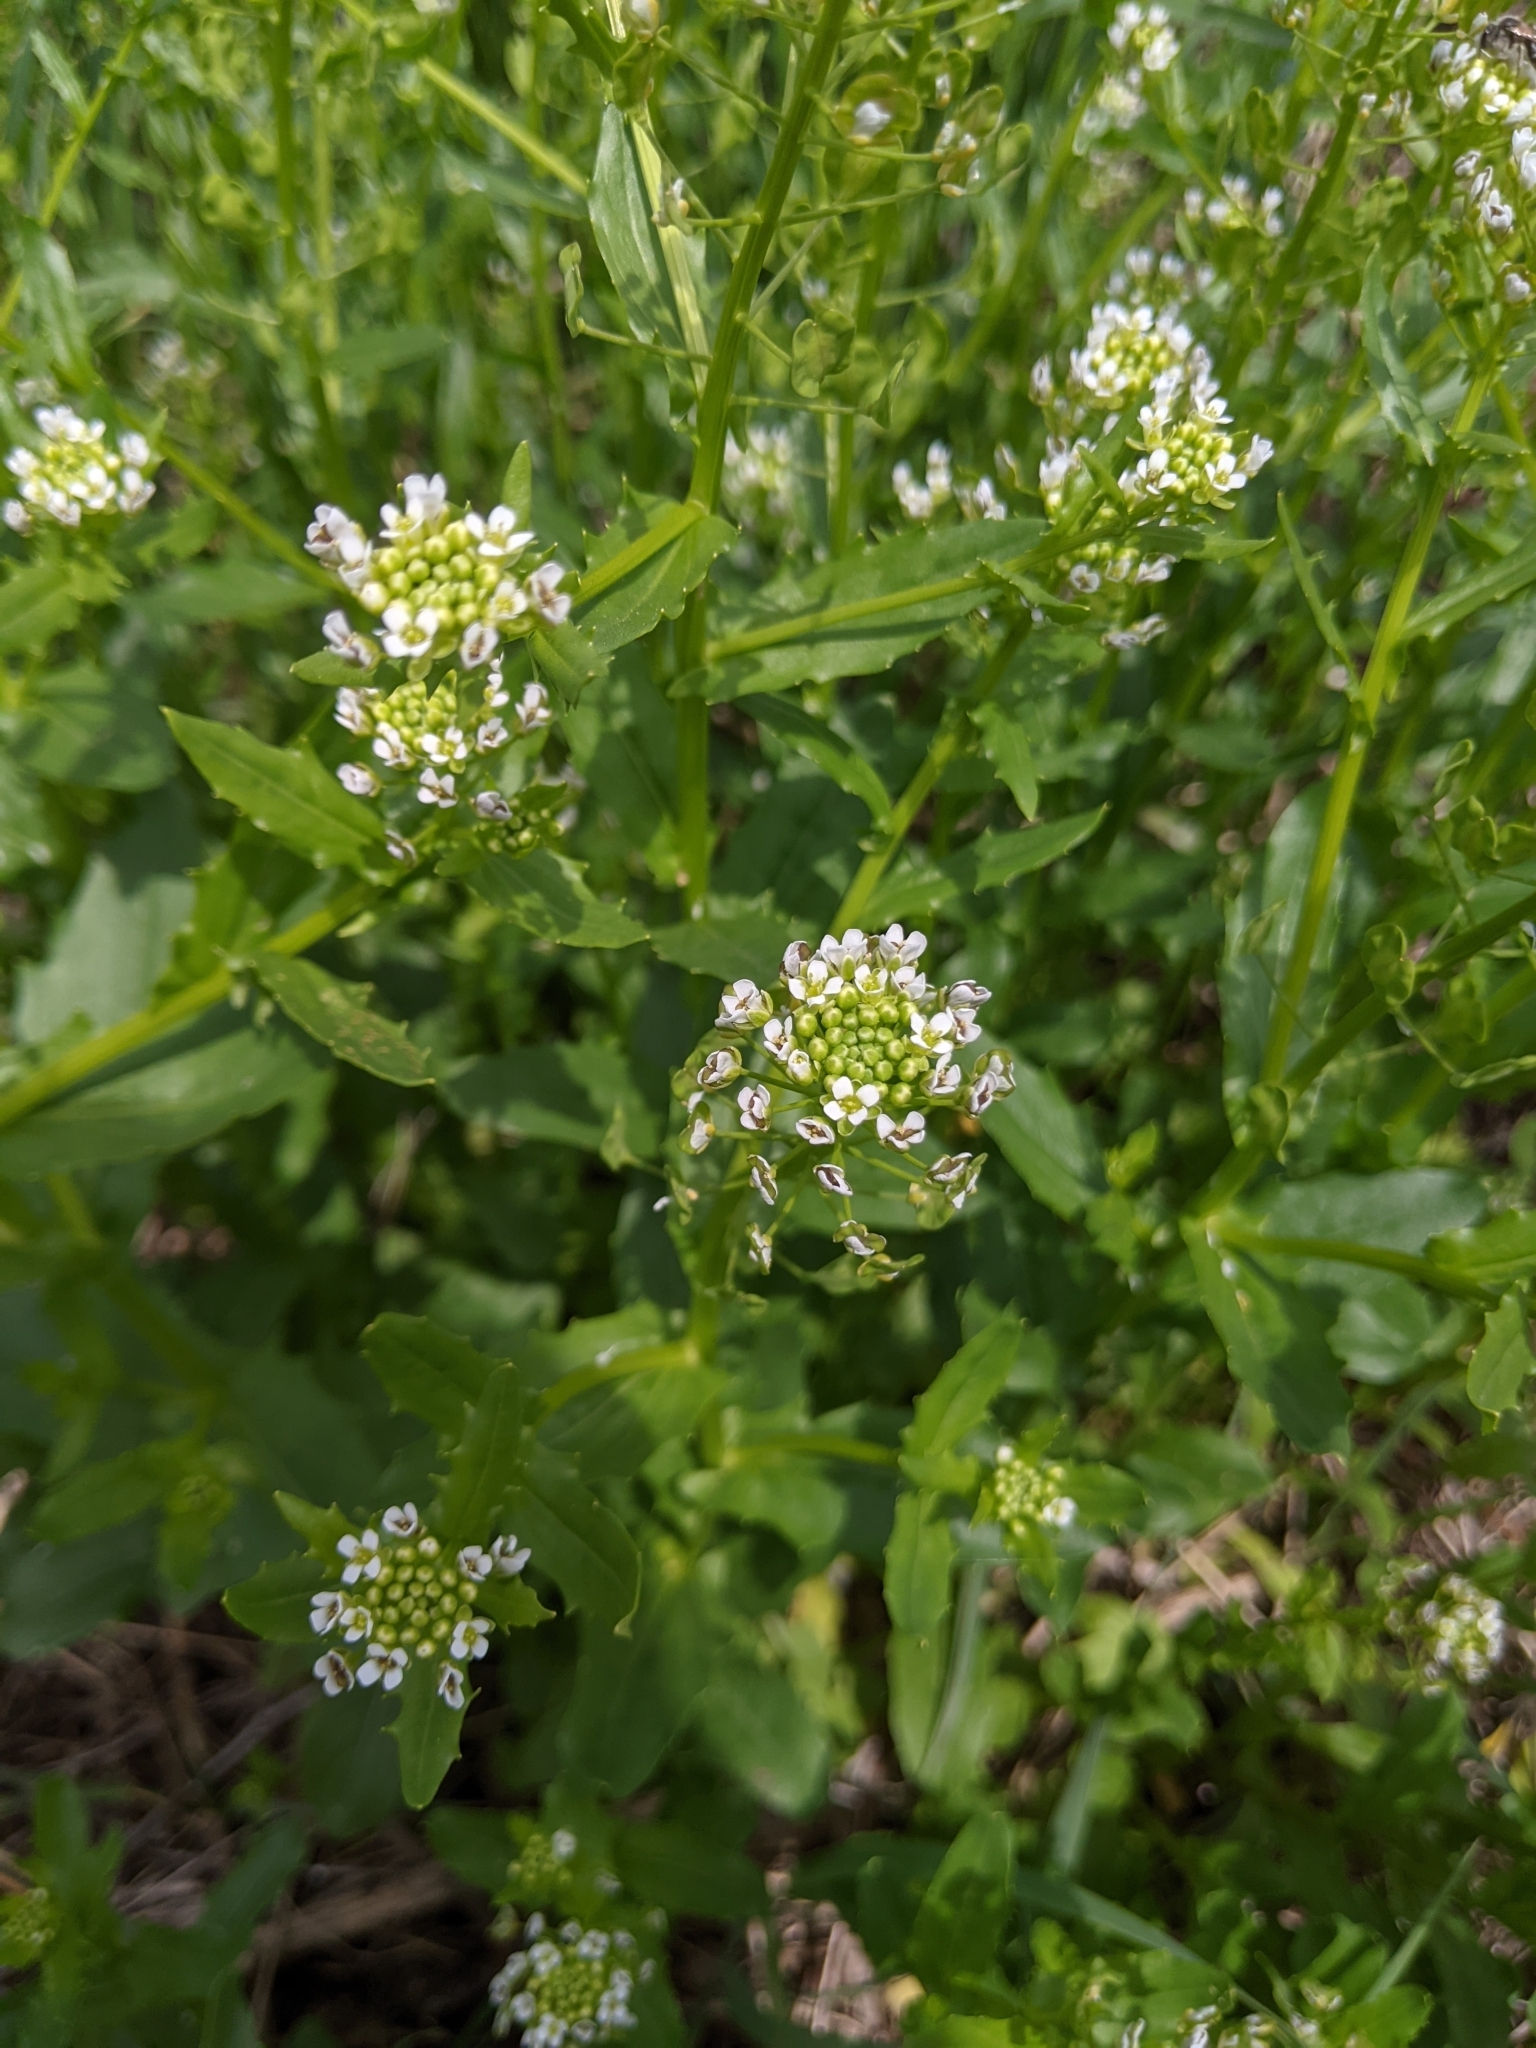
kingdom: Plantae
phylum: Tracheophyta
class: Magnoliopsida
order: Brassicales
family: Brassicaceae
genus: Thlaspi
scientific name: Thlaspi arvense
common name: Field pennycress
